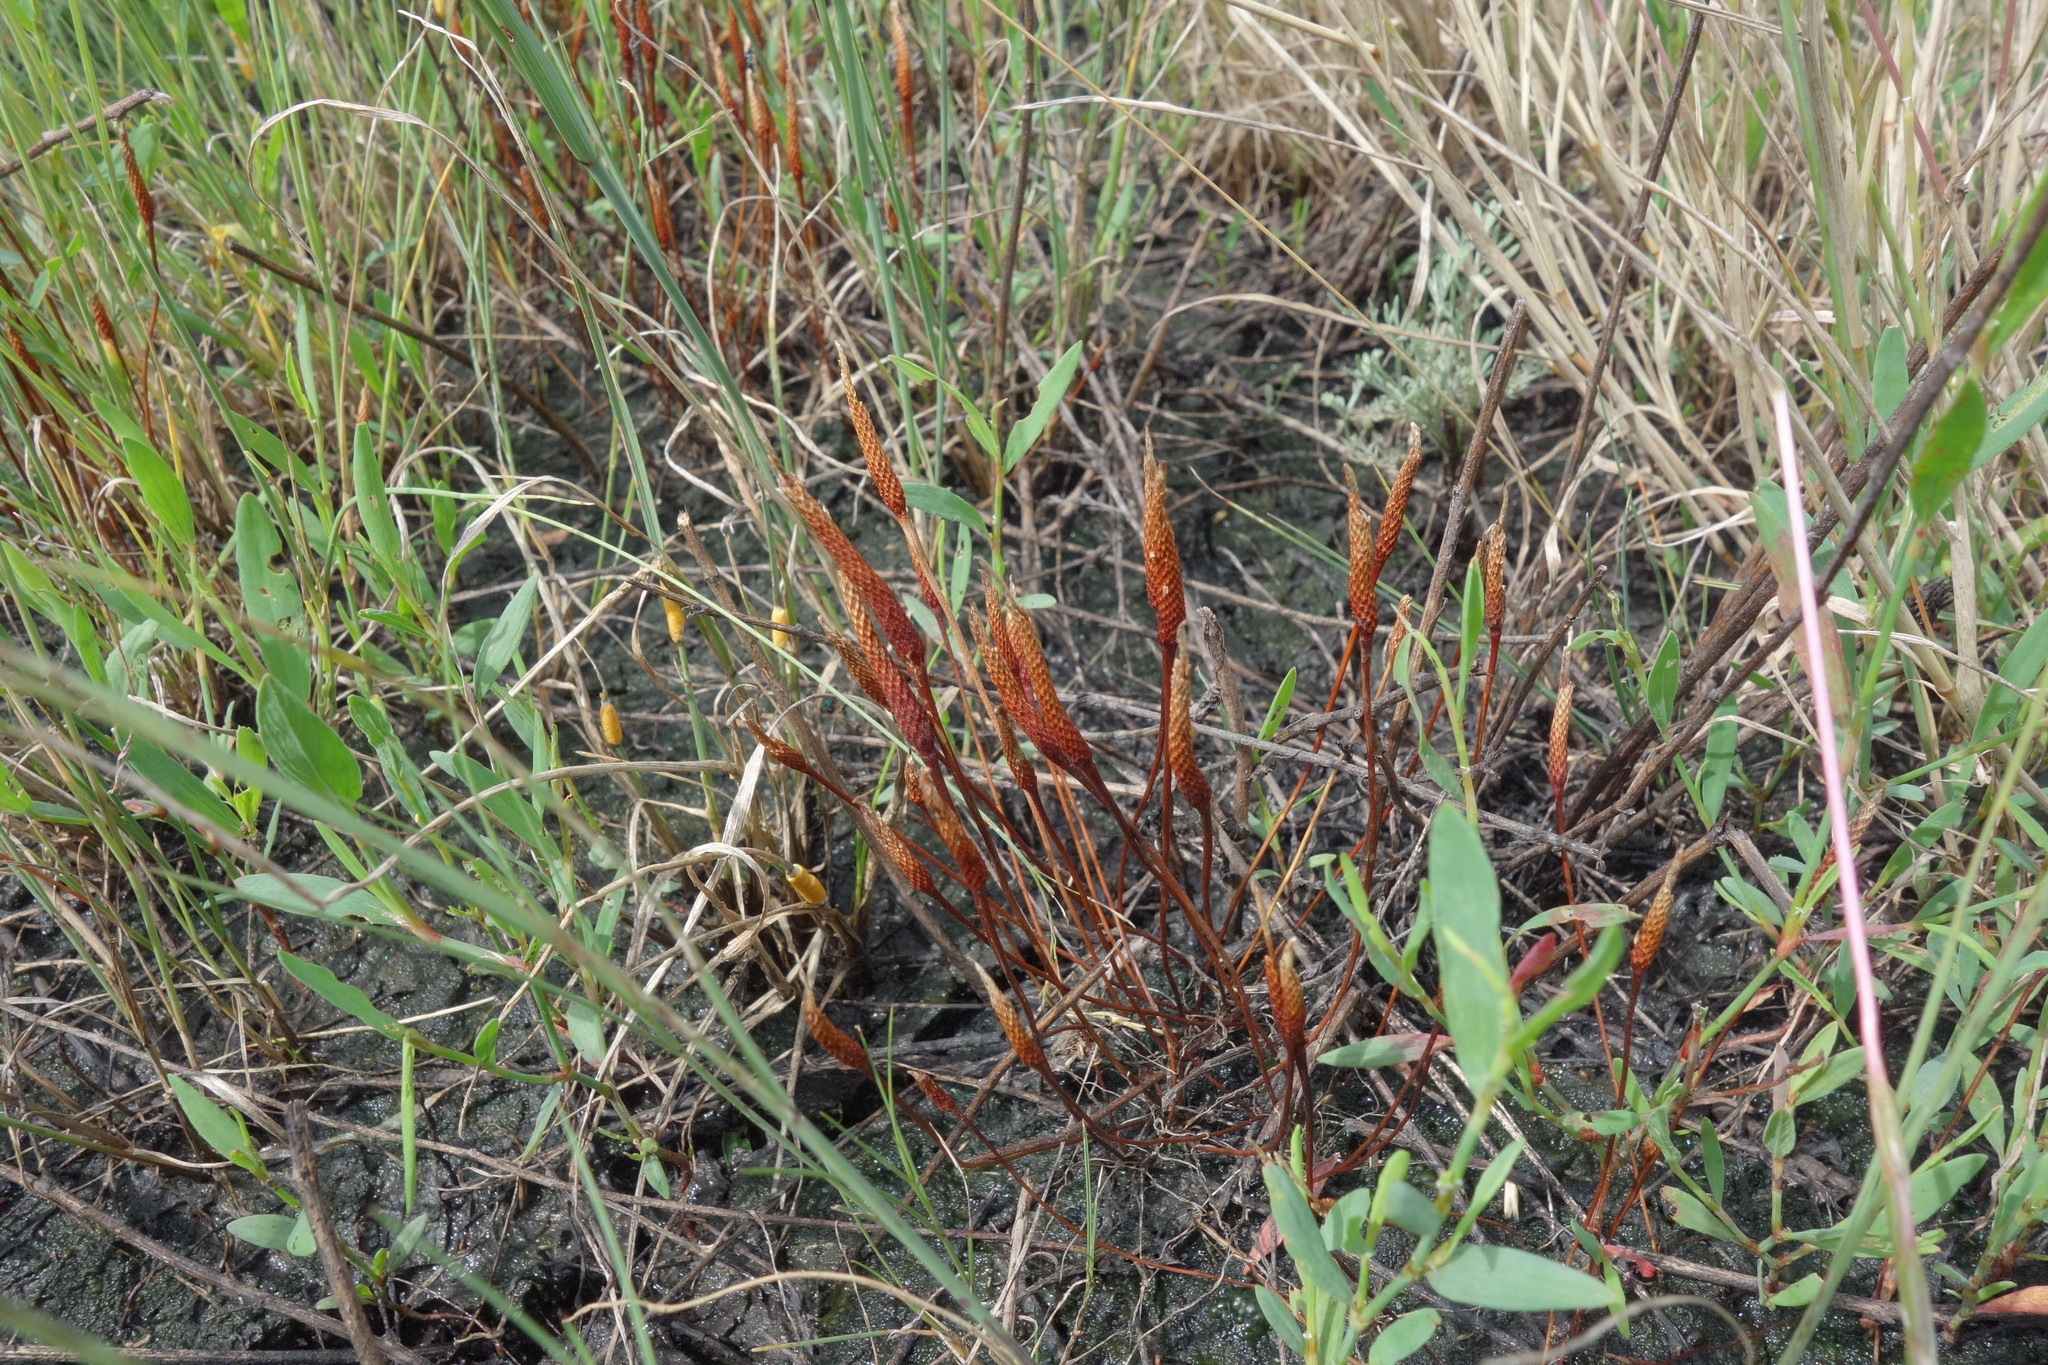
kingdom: Plantae
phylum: Tracheophyta
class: Magnoliopsida
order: Ranunculales
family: Ranunculaceae
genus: Myosurus
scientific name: Myosurus minimus
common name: Mousetail
